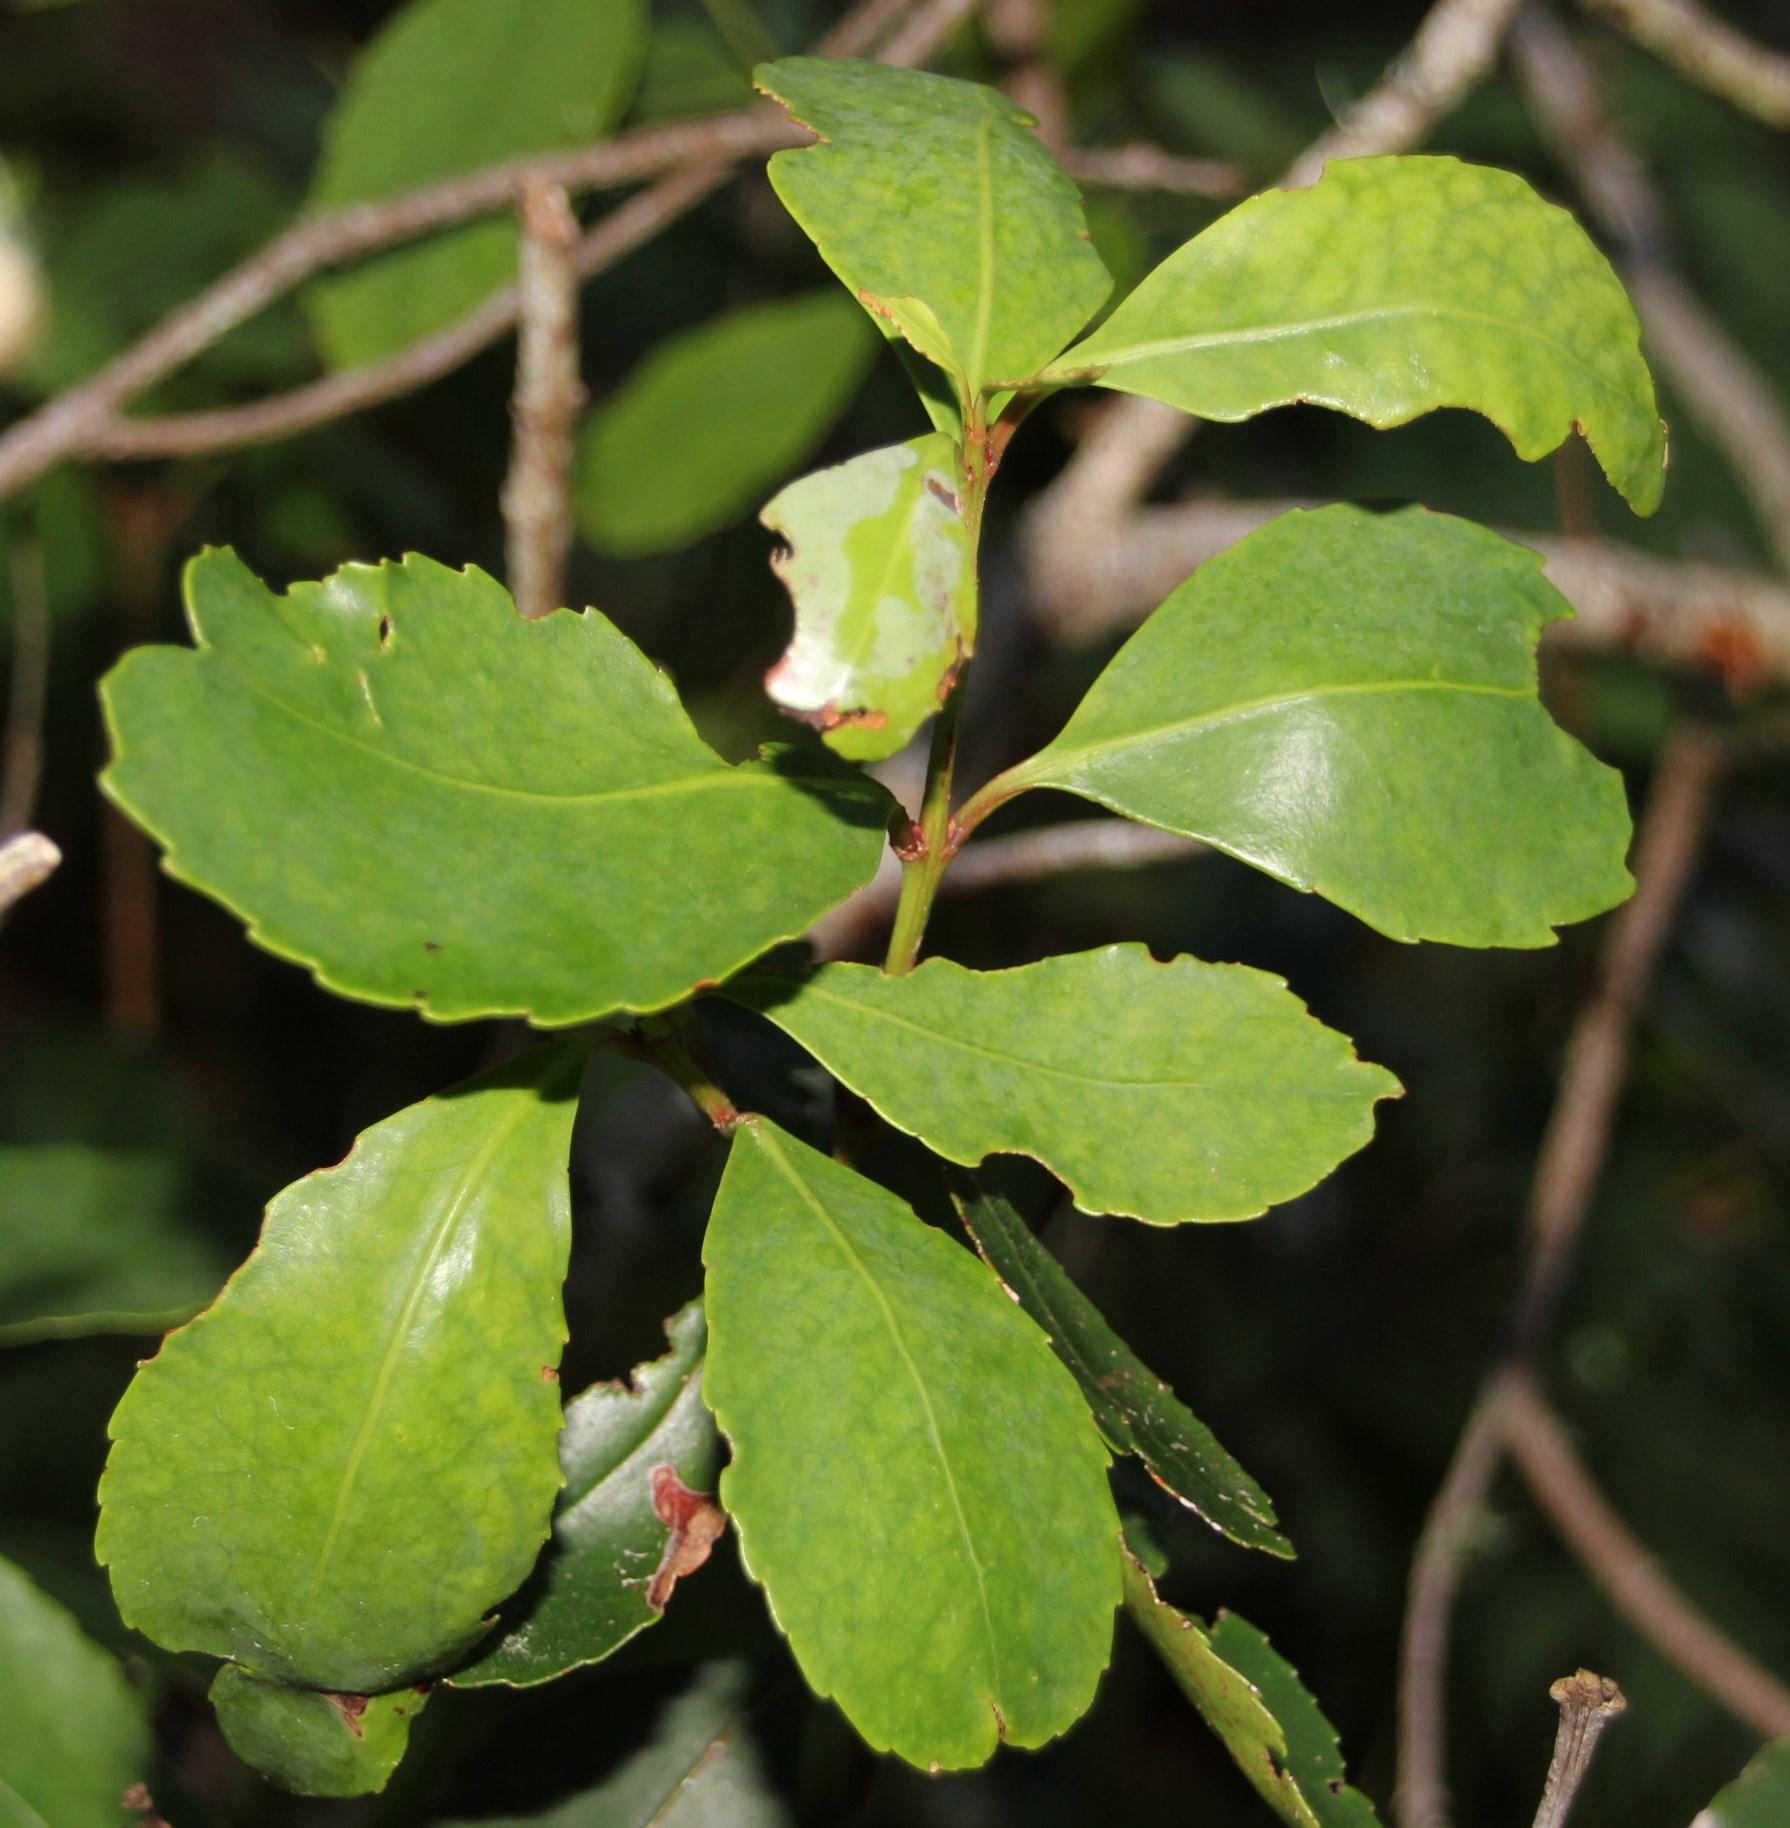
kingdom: Plantae
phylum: Tracheophyta
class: Magnoliopsida
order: Celastrales
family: Celastraceae
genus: Elaeodendron
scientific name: Elaeodendron schinoides
